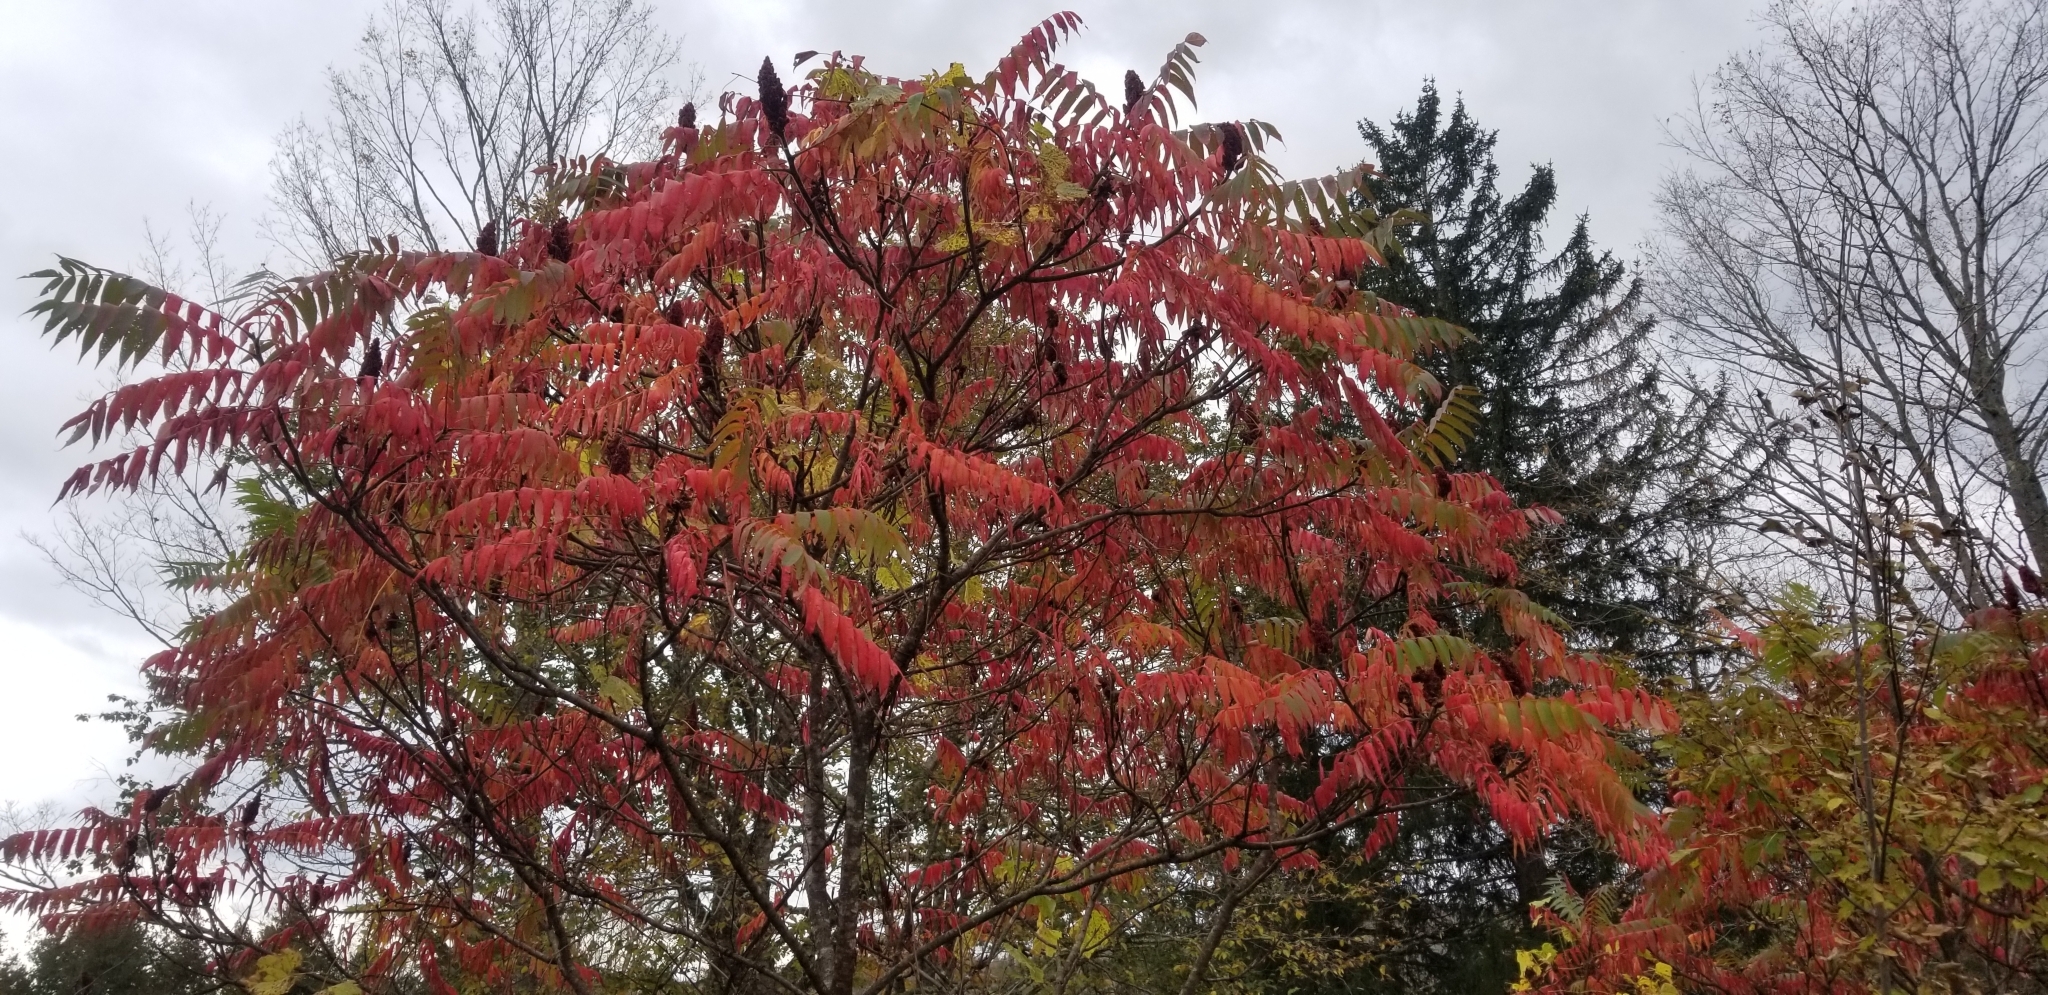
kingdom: Plantae
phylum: Tracheophyta
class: Magnoliopsida
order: Sapindales
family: Anacardiaceae
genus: Rhus
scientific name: Rhus typhina
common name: Staghorn sumac
